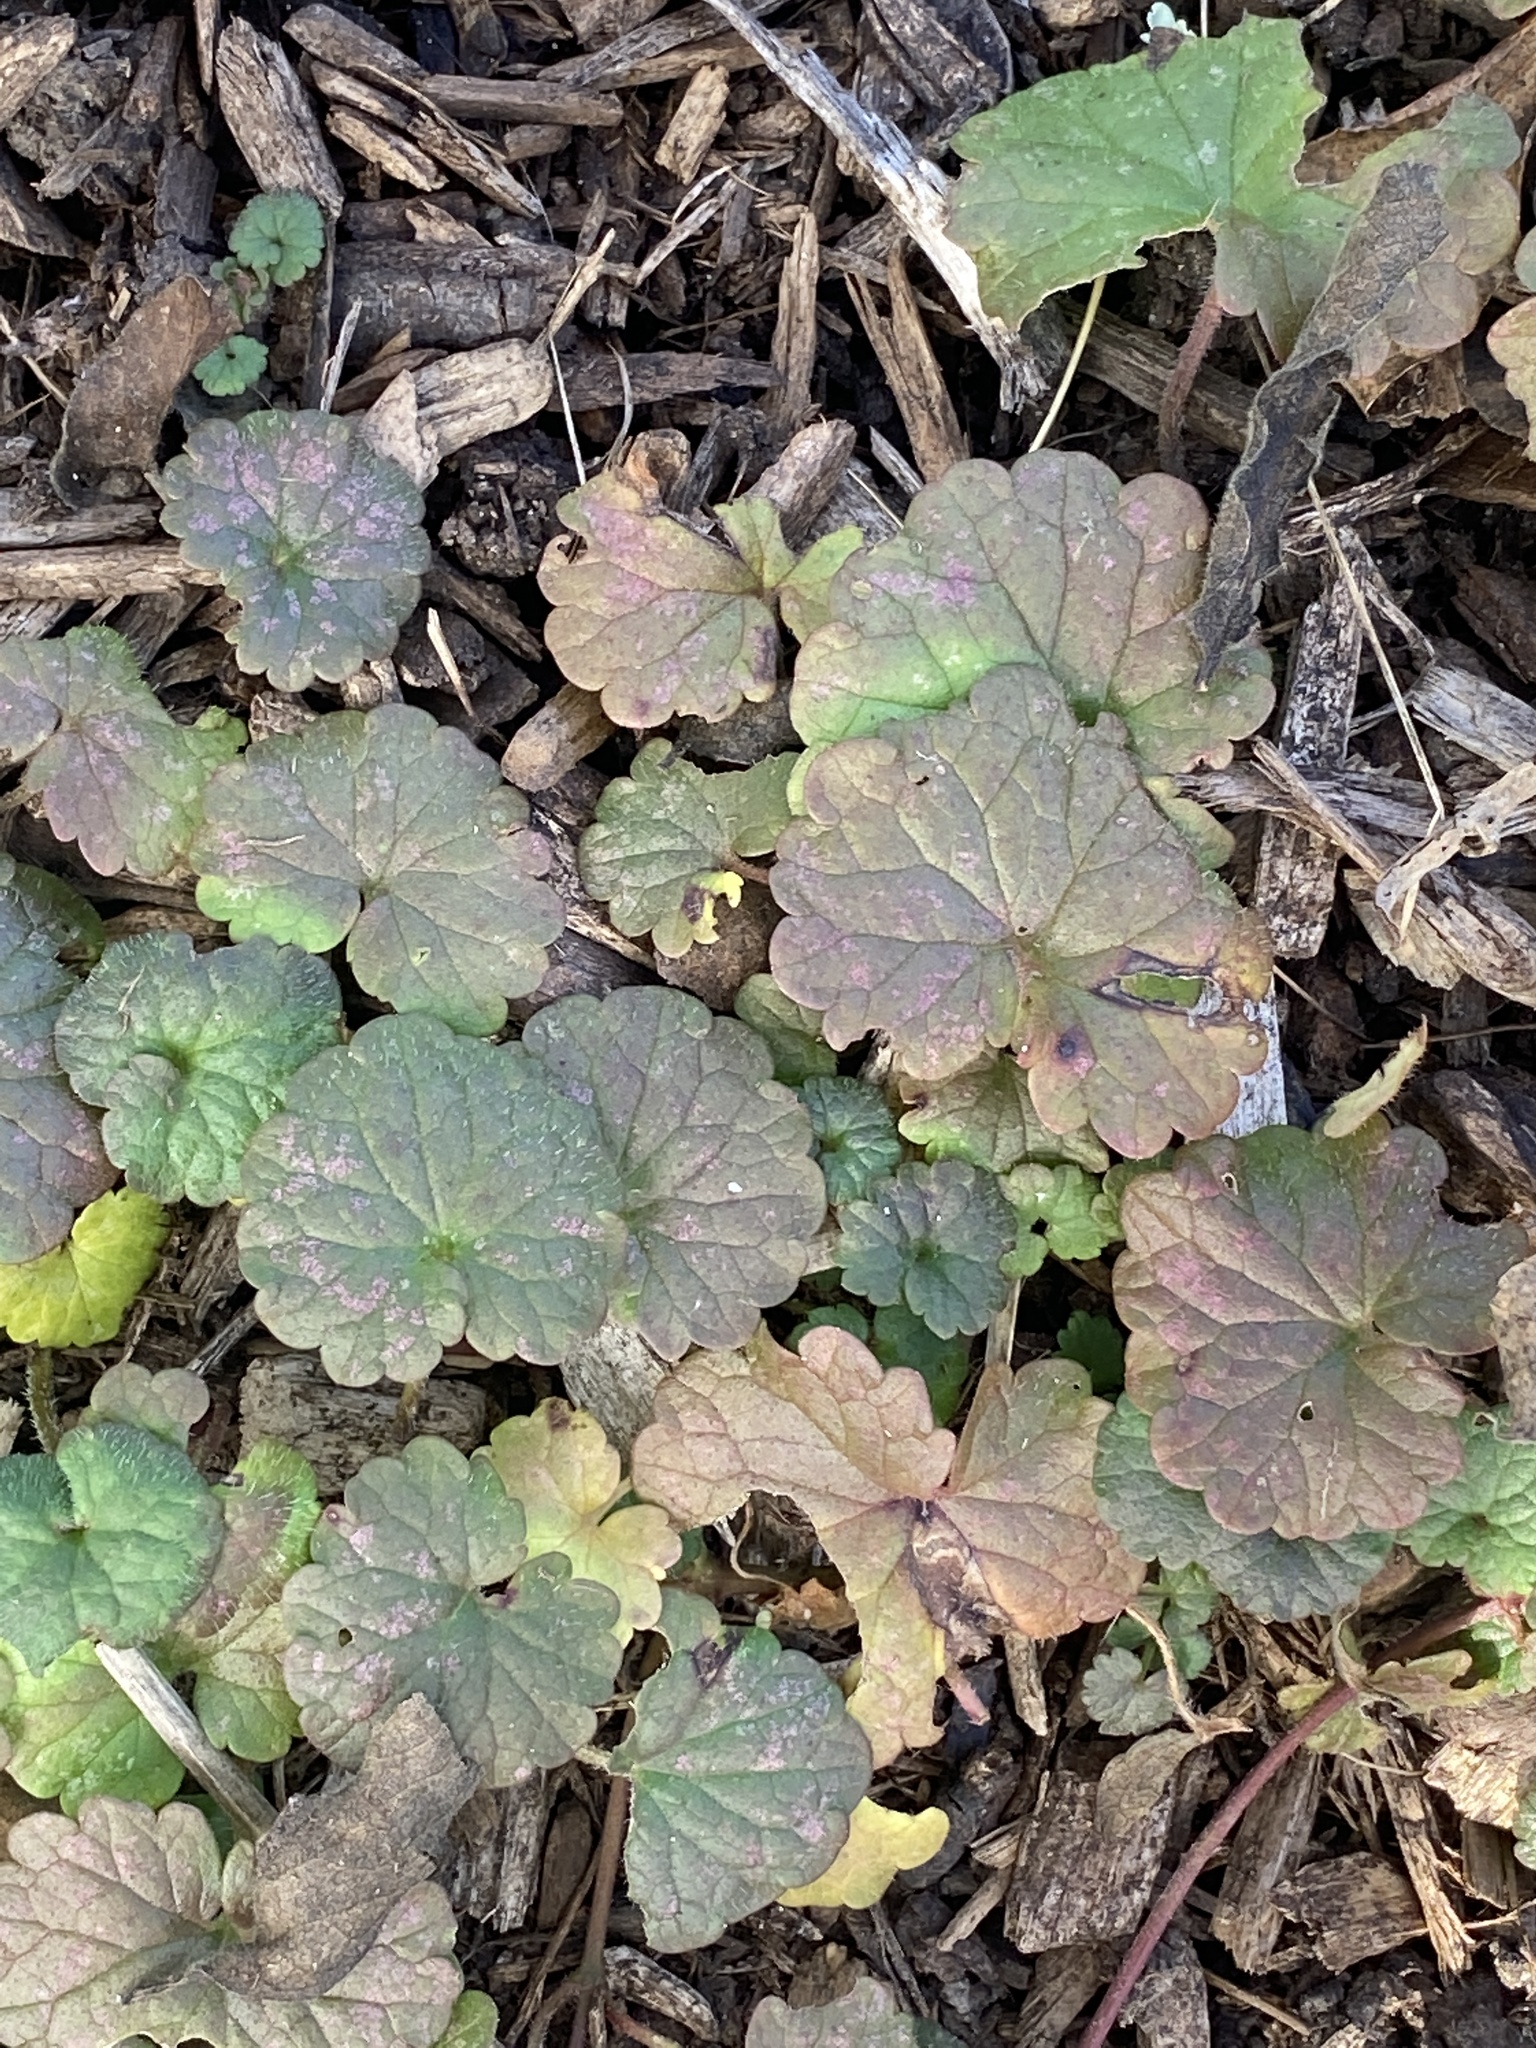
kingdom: Plantae
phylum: Tracheophyta
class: Magnoliopsida
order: Lamiales
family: Lamiaceae
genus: Glechoma
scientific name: Glechoma hederacea
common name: Ground ivy
